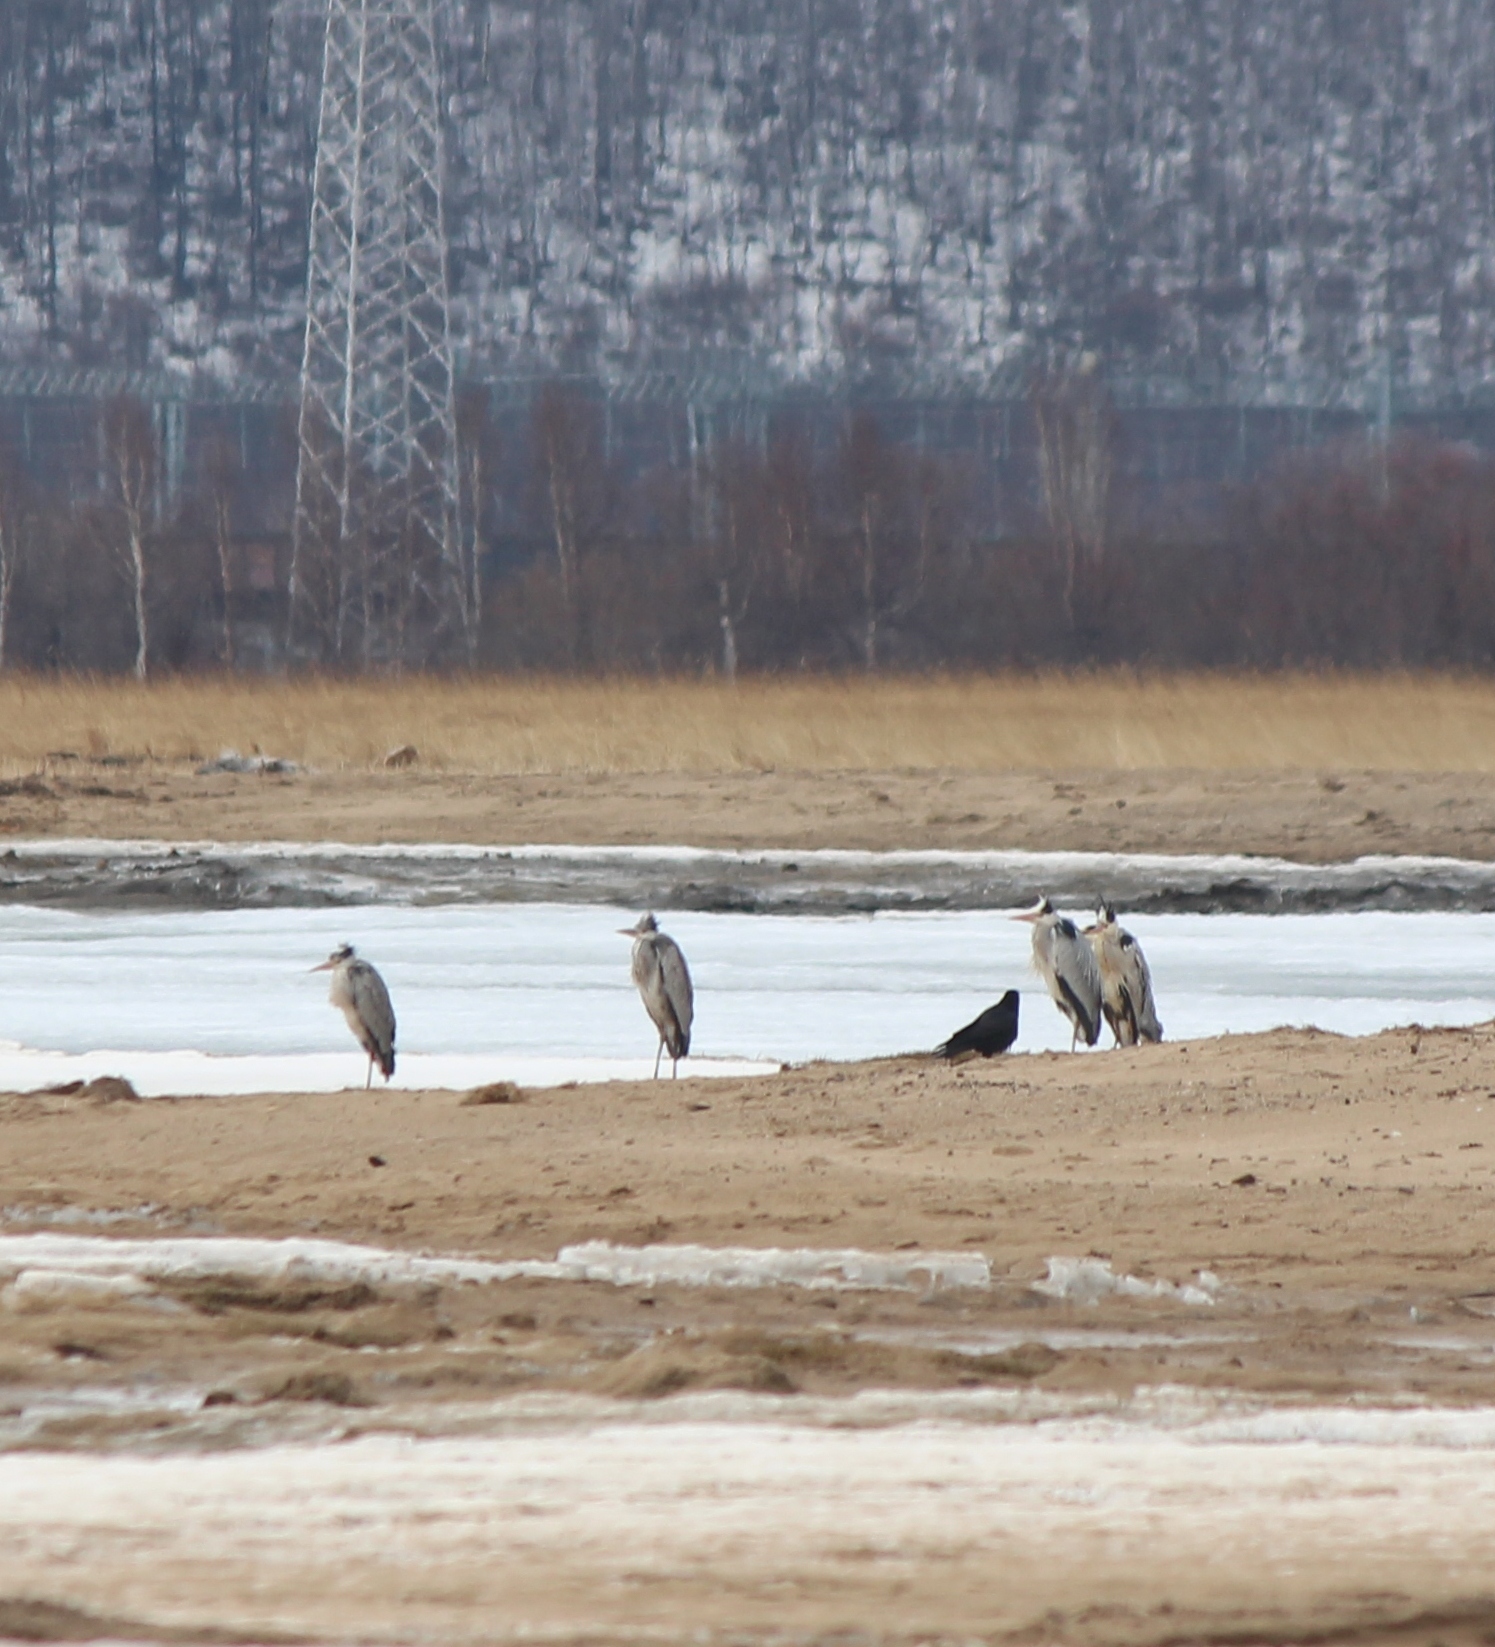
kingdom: Animalia
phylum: Chordata
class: Aves
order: Pelecaniformes
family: Ardeidae
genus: Ardea
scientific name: Ardea cinerea
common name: Grey heron
